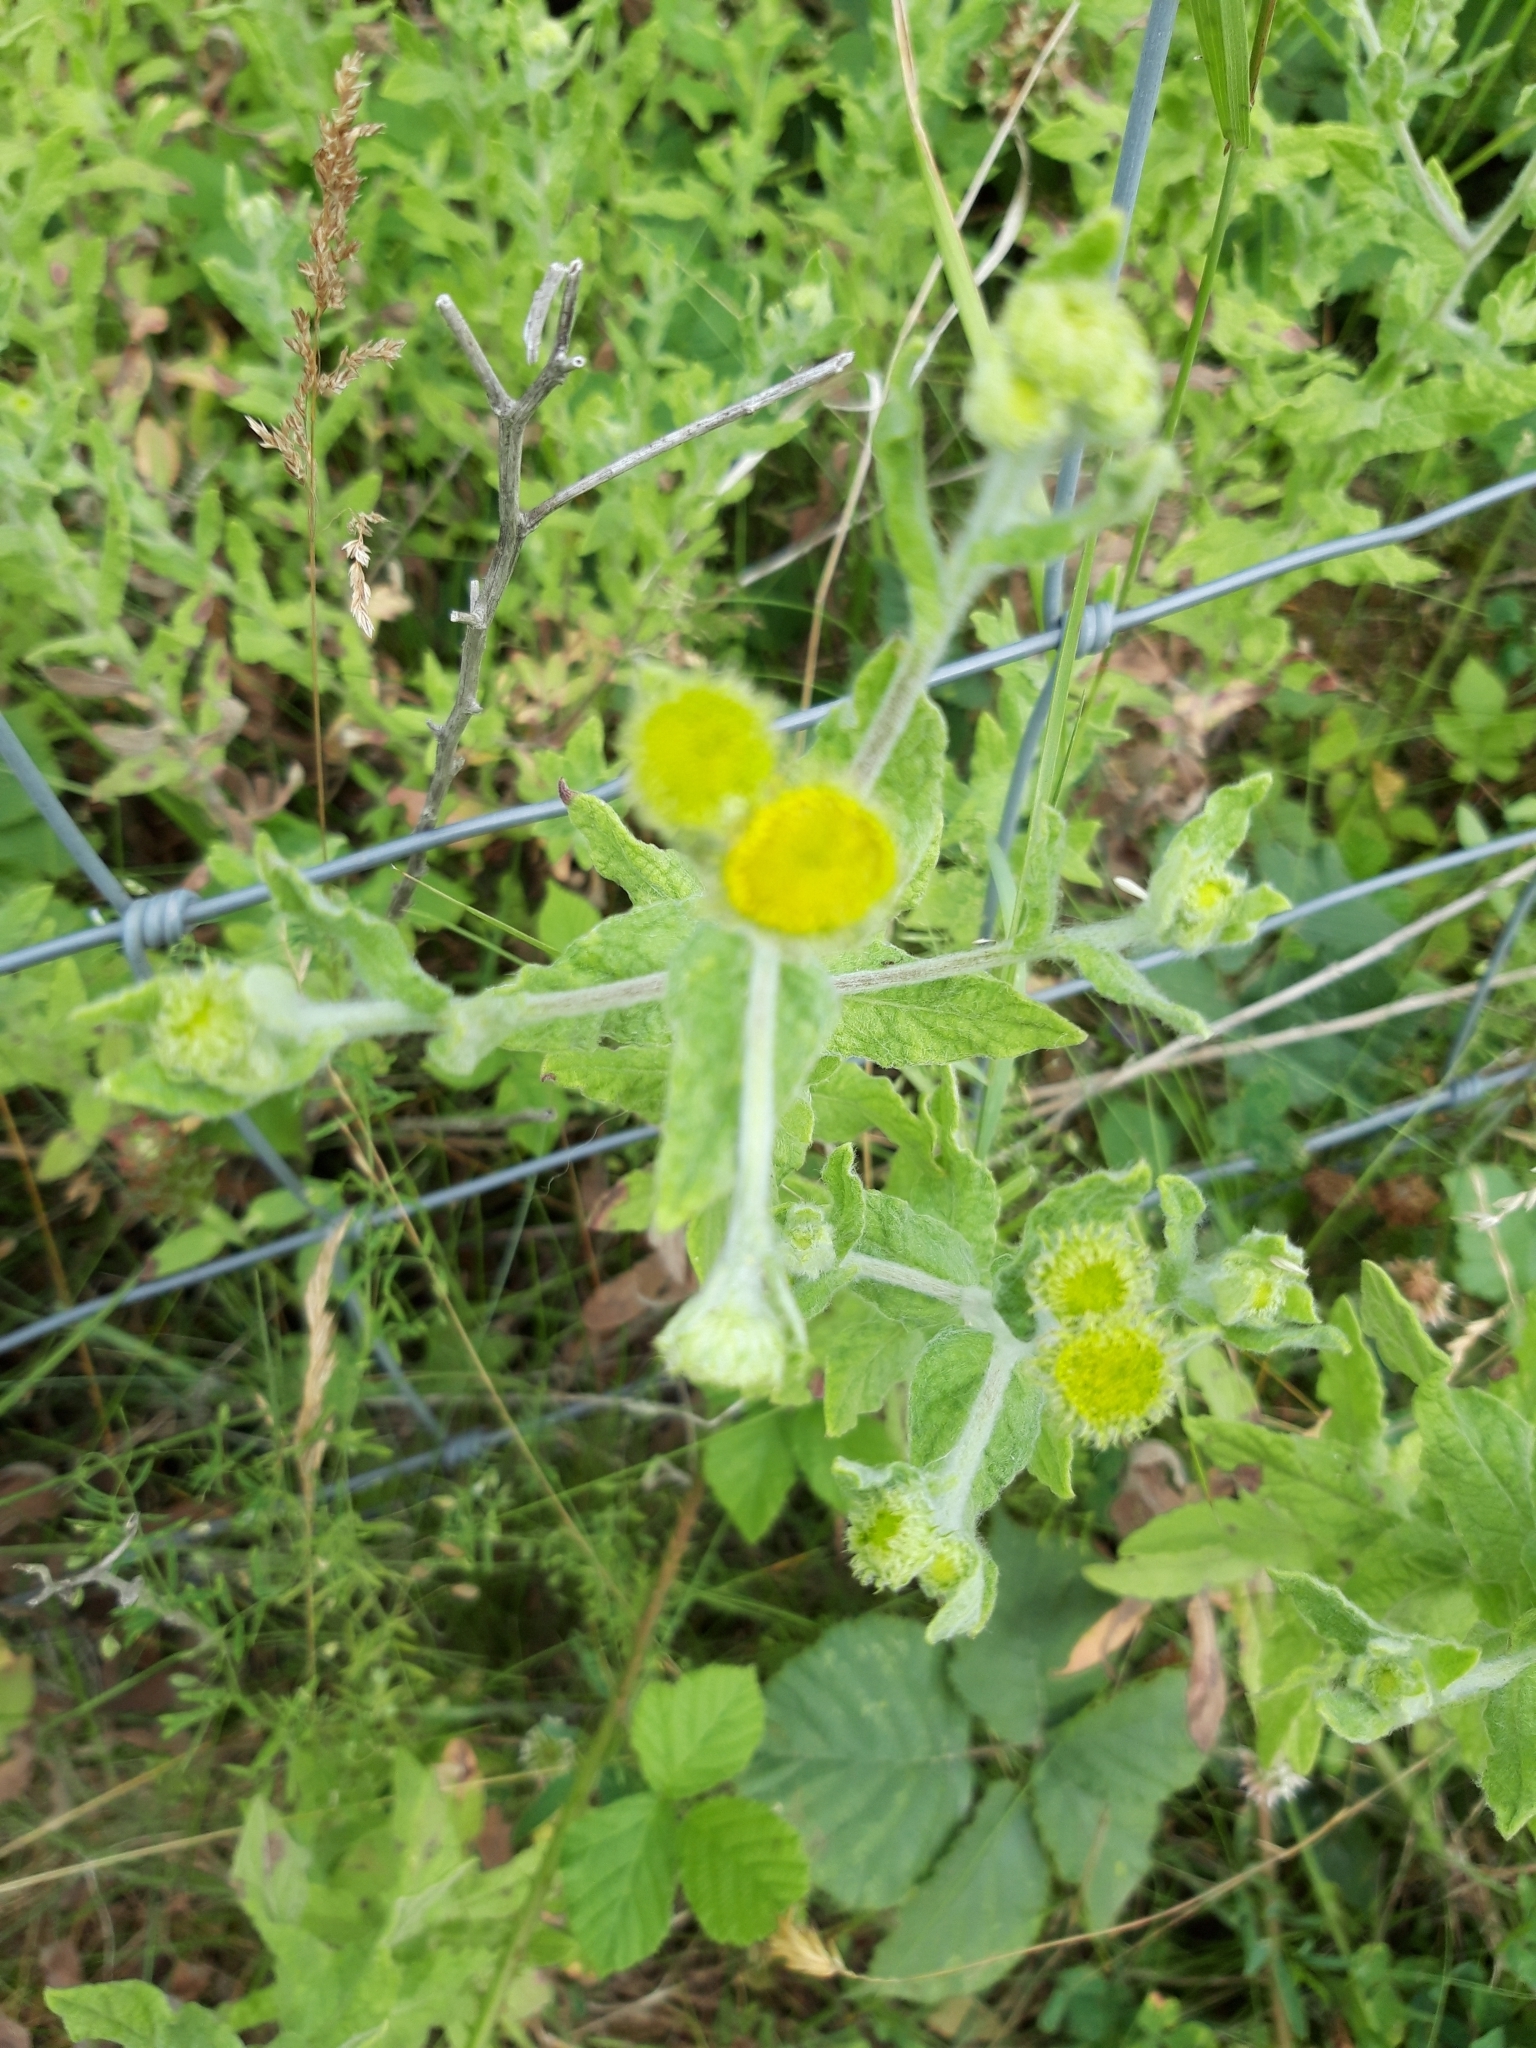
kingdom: Plantae
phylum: Tracheophyta
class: Magnoliopsida
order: Asterales
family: Asteraceae
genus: Pulicaria
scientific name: Pulicaria dysenterica
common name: Common fleabane
